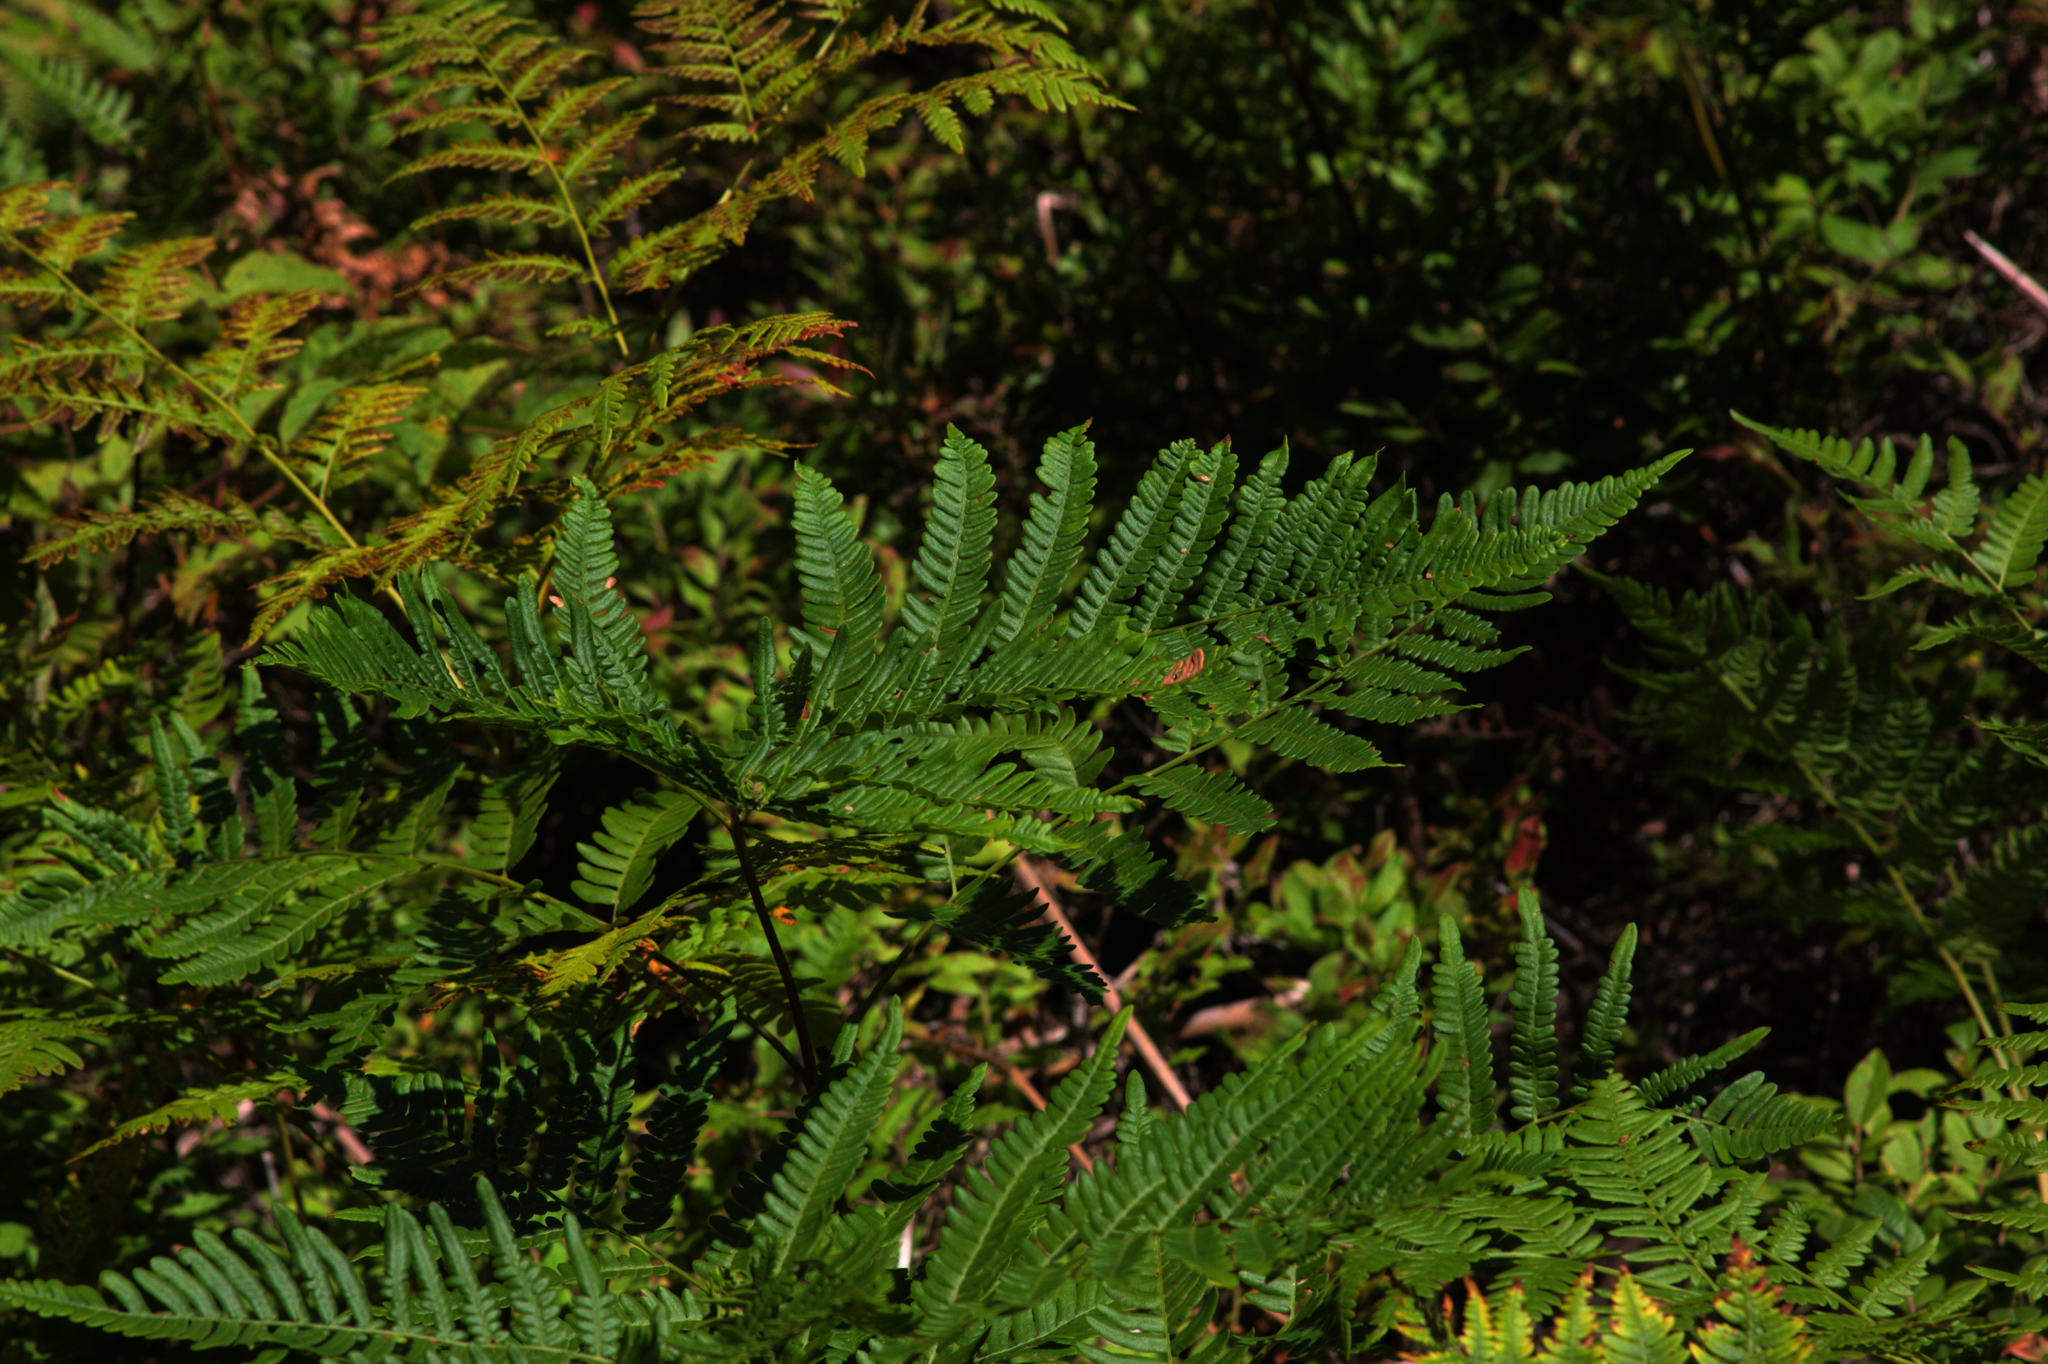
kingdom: Plantae
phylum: Tracheophyta
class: Polypodiopsida
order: Polypodiales
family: Dennstaedtiaceae
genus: Pteridium
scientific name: Pteridium aquilinum
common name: Bracken
